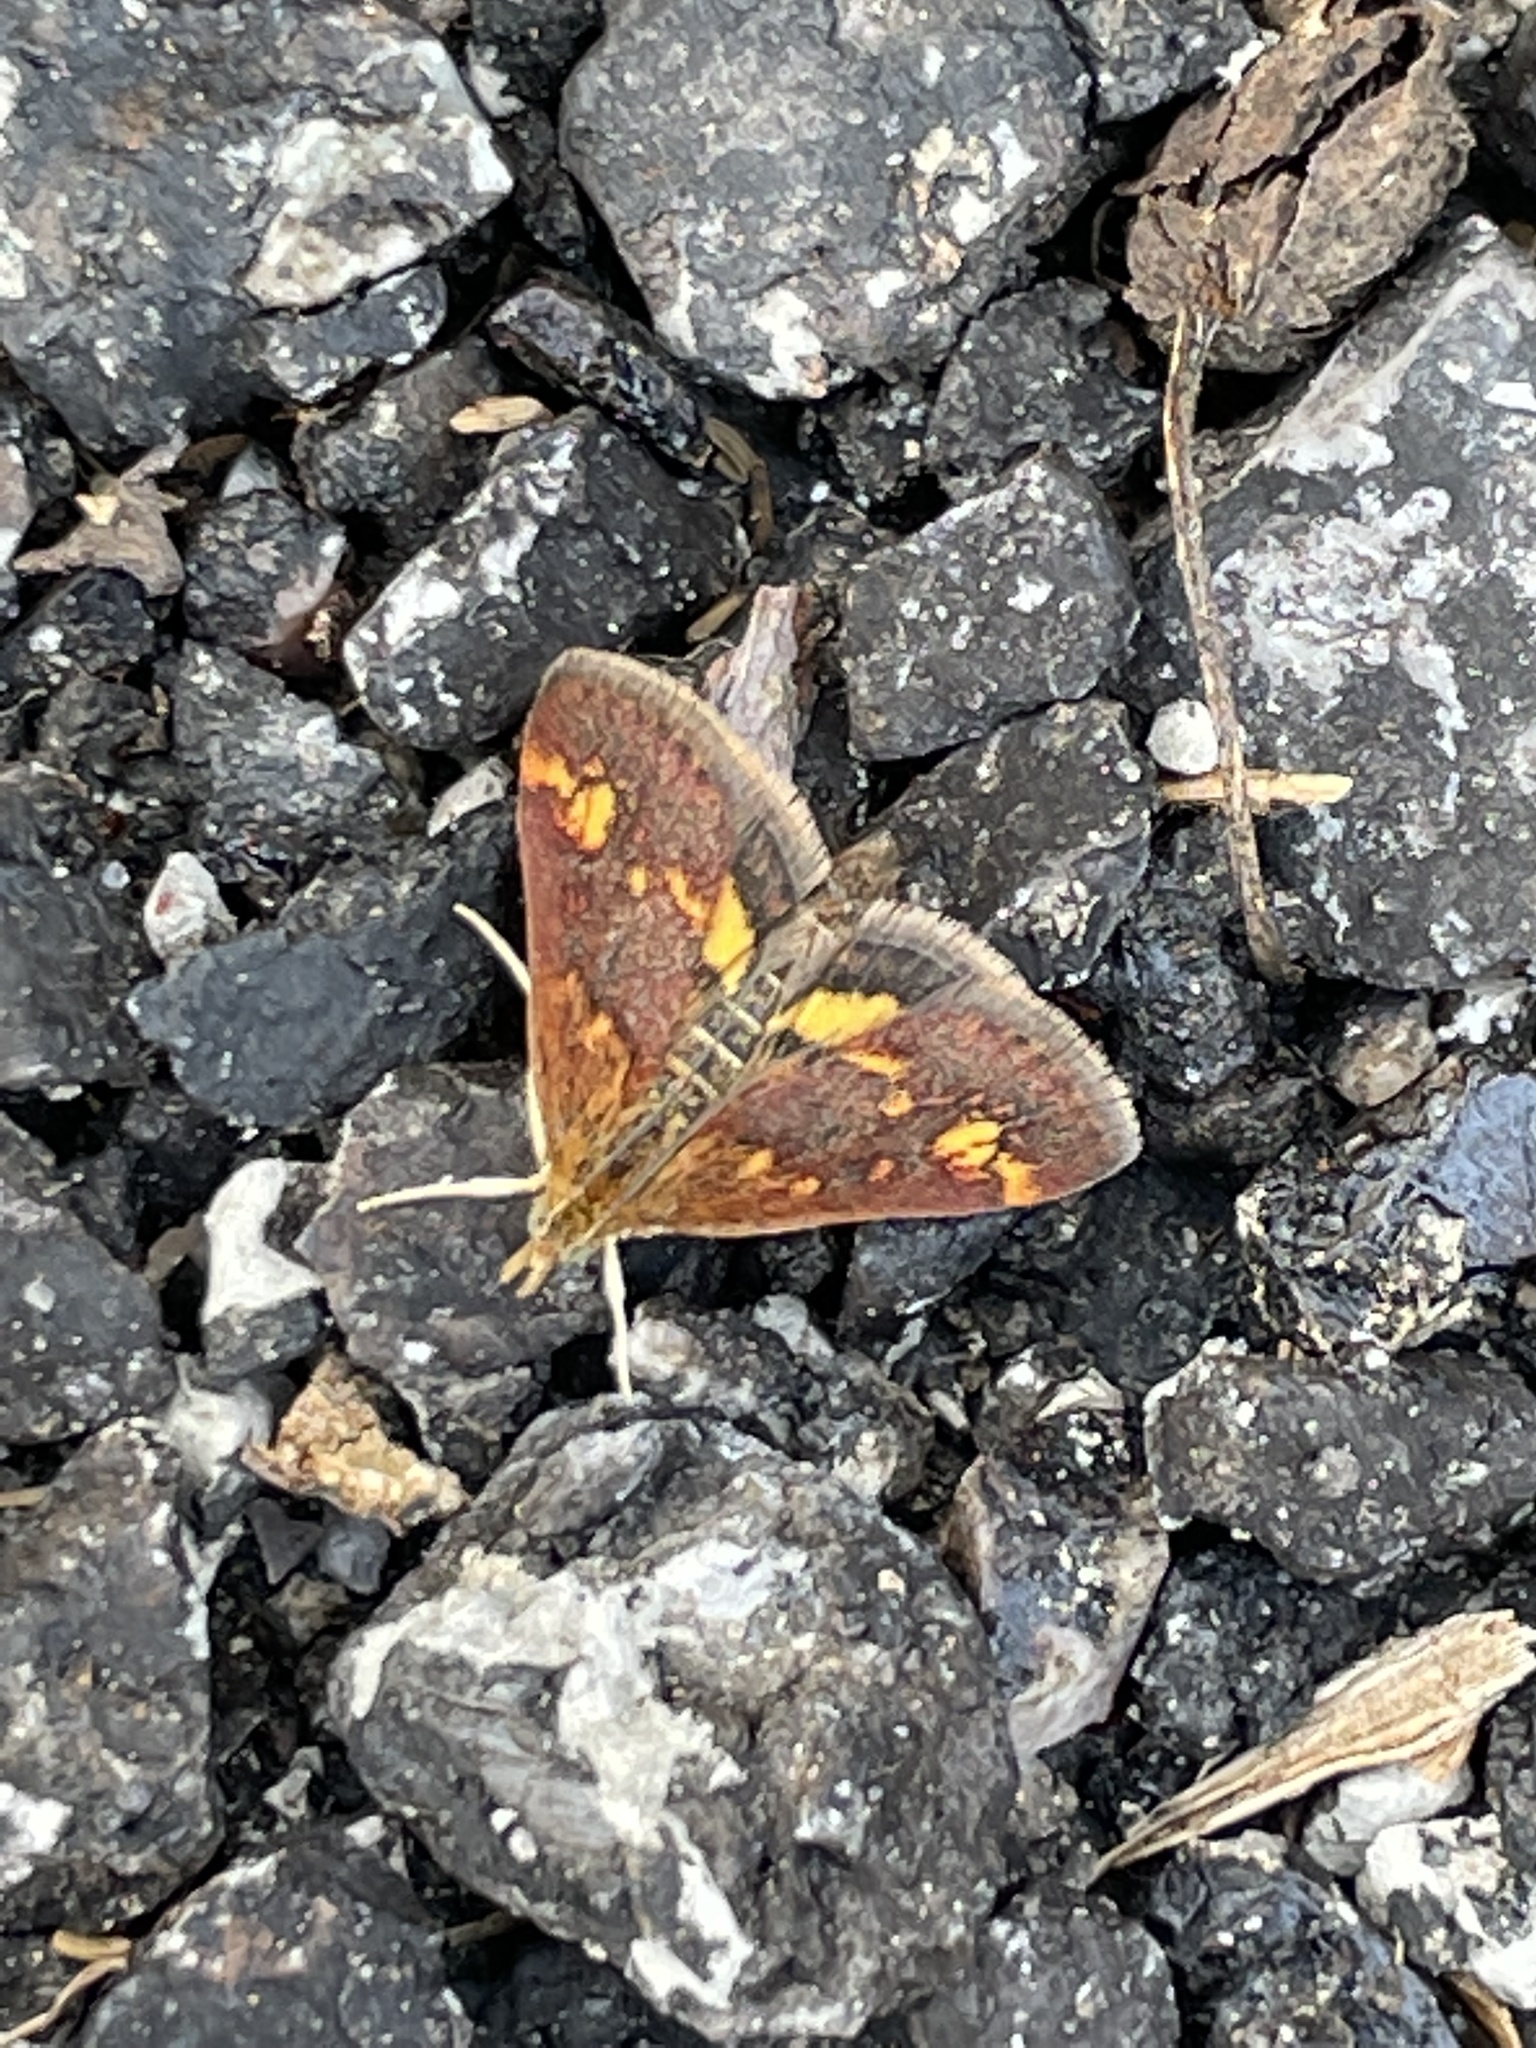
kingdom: Animalia
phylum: Arthropoda
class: Insecta
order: Lepidoptera
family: Crambidae
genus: Pyrausta
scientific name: Pyrausta orphisalis
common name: Orange mint moth
